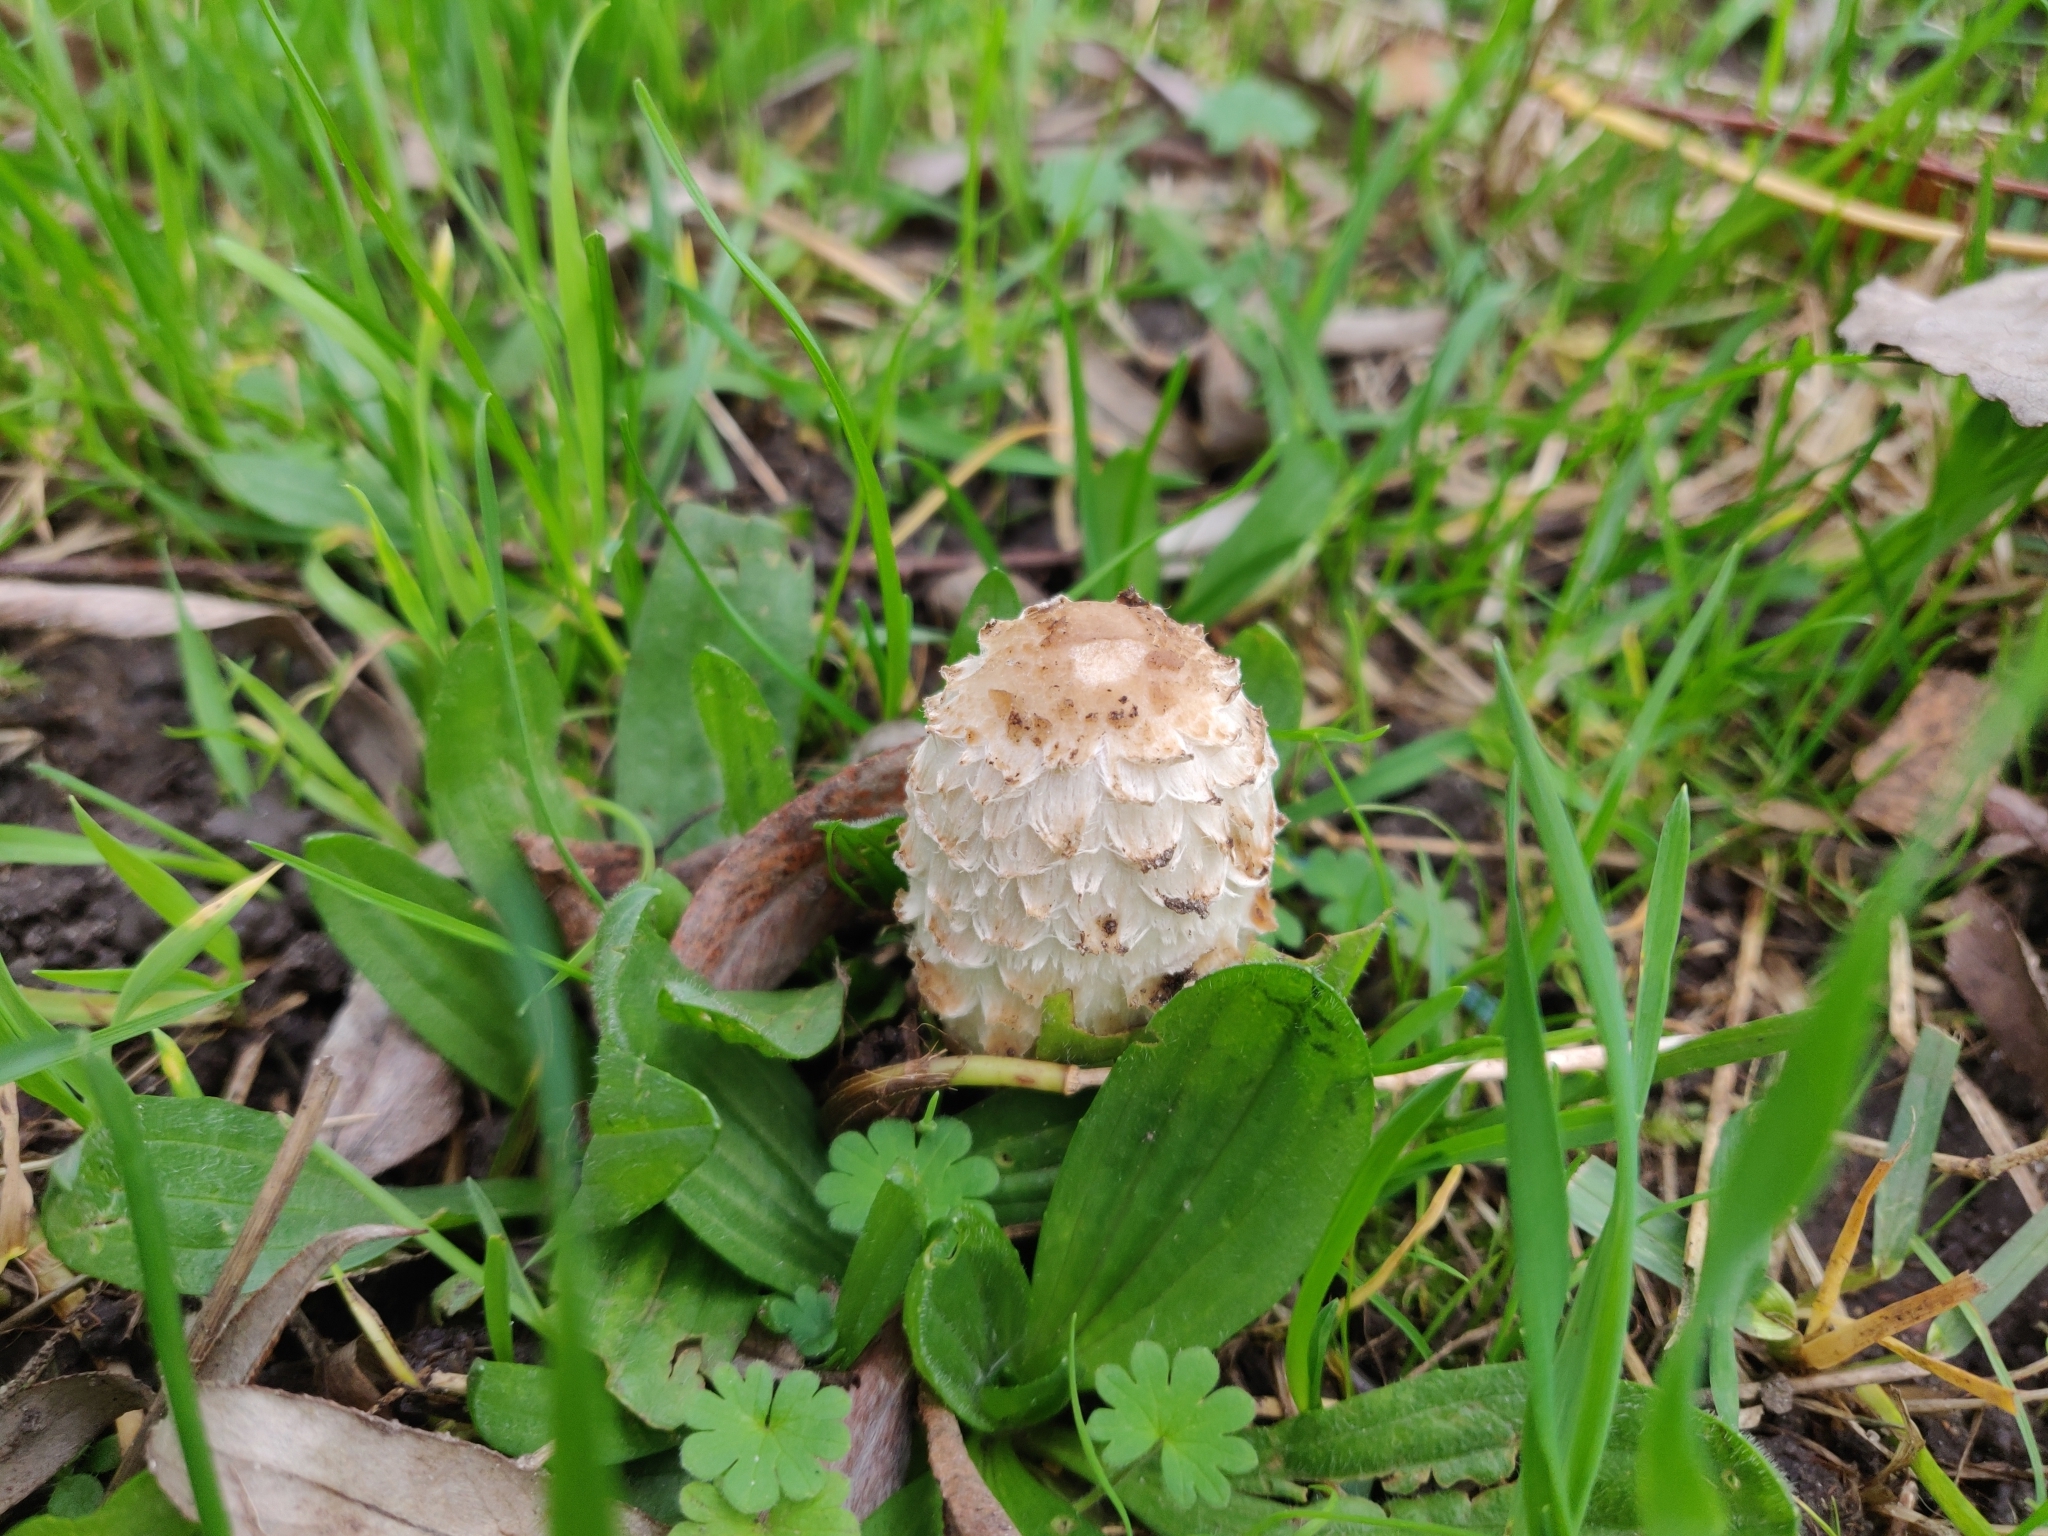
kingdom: Fungi
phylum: Basidiomycota
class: Agaricomycetes
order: Agaricales
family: Agaricaceae
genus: Coprinus
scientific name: Coprinus comatus
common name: Lawyer's wig
